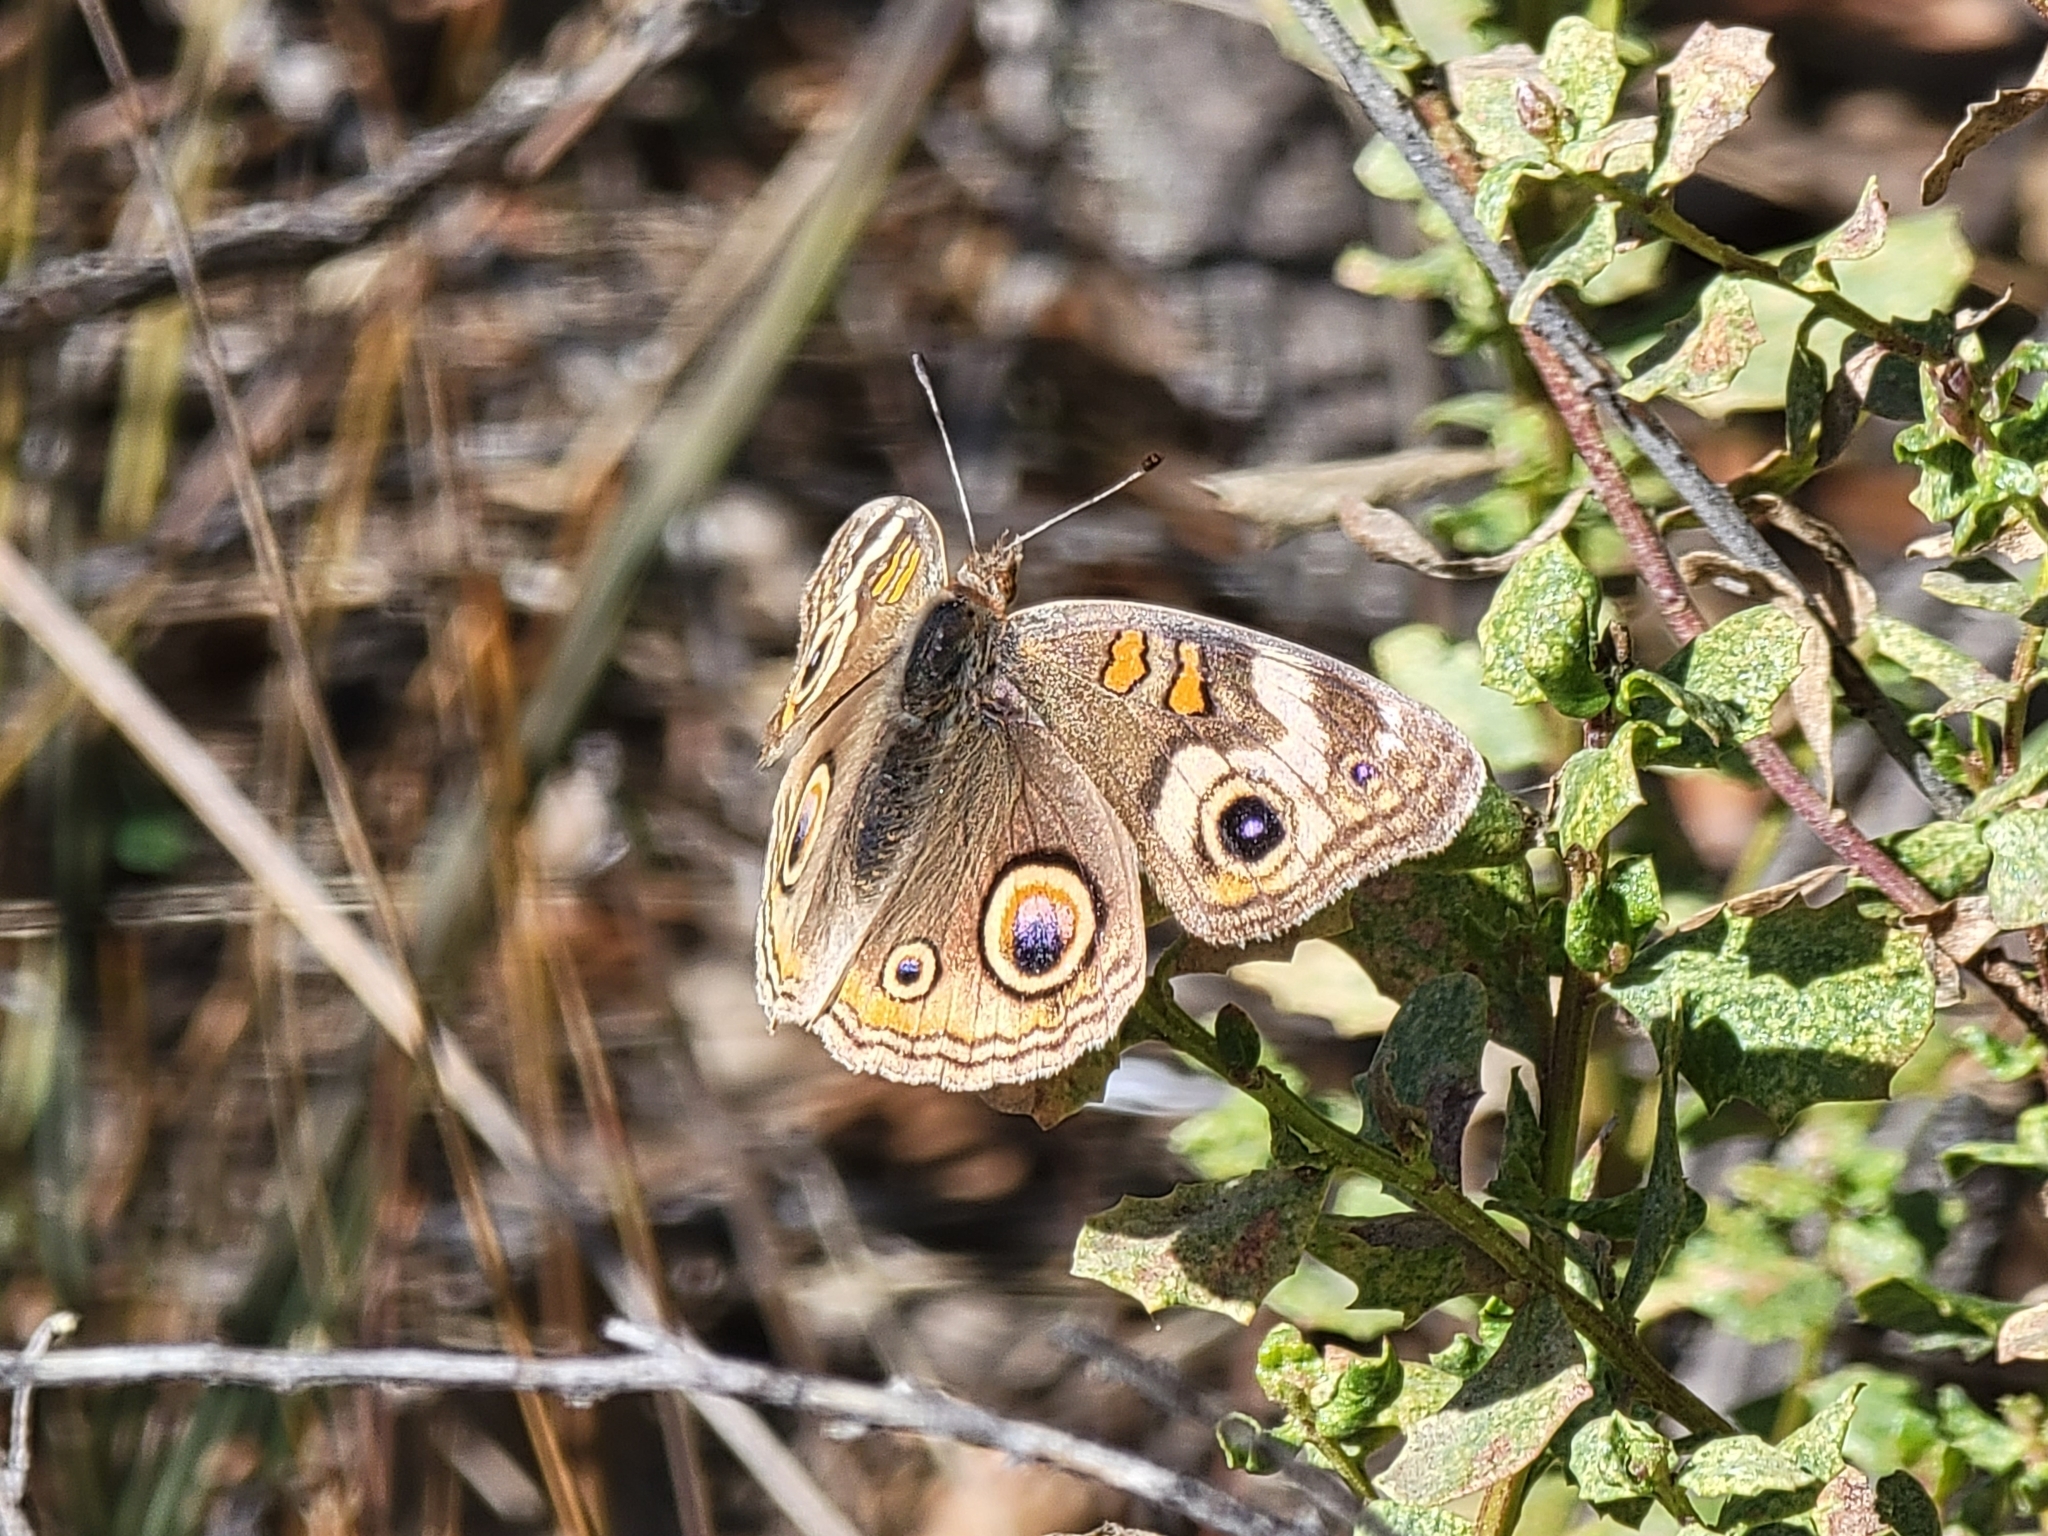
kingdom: Animalia
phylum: Arthropoda
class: Insecta
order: Lepidoptera
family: Nymphalidae
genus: Junonia
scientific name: Junonia grisea
